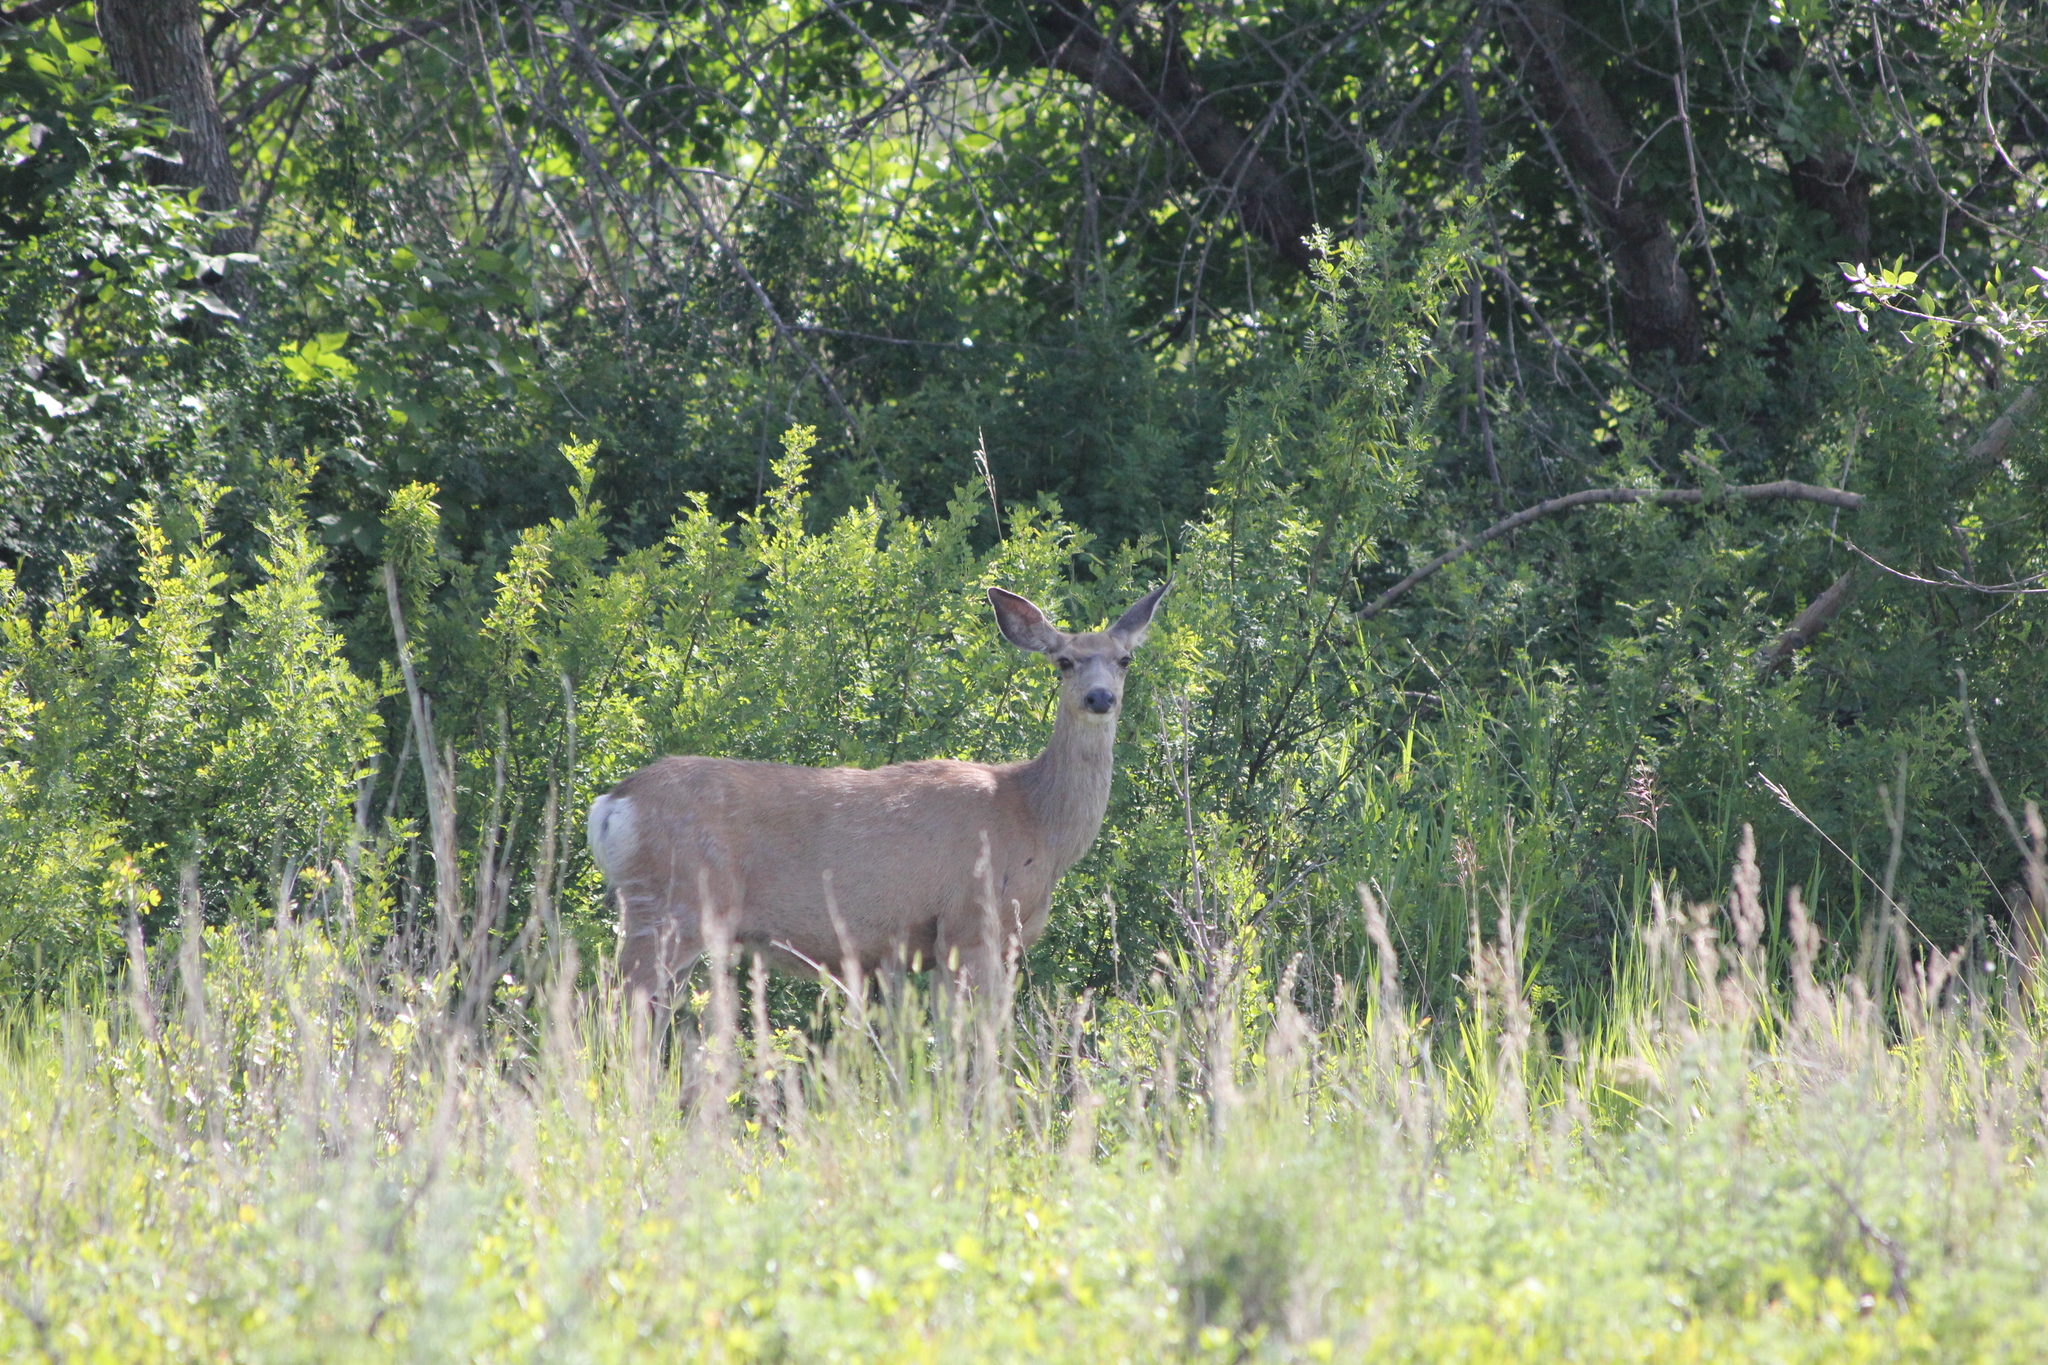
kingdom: Animalia
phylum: Chordata
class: Mammalia
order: Artiodactyla
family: Cervidae
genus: Odocoileus
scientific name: Odocoileus hemionus
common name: Mule deer
